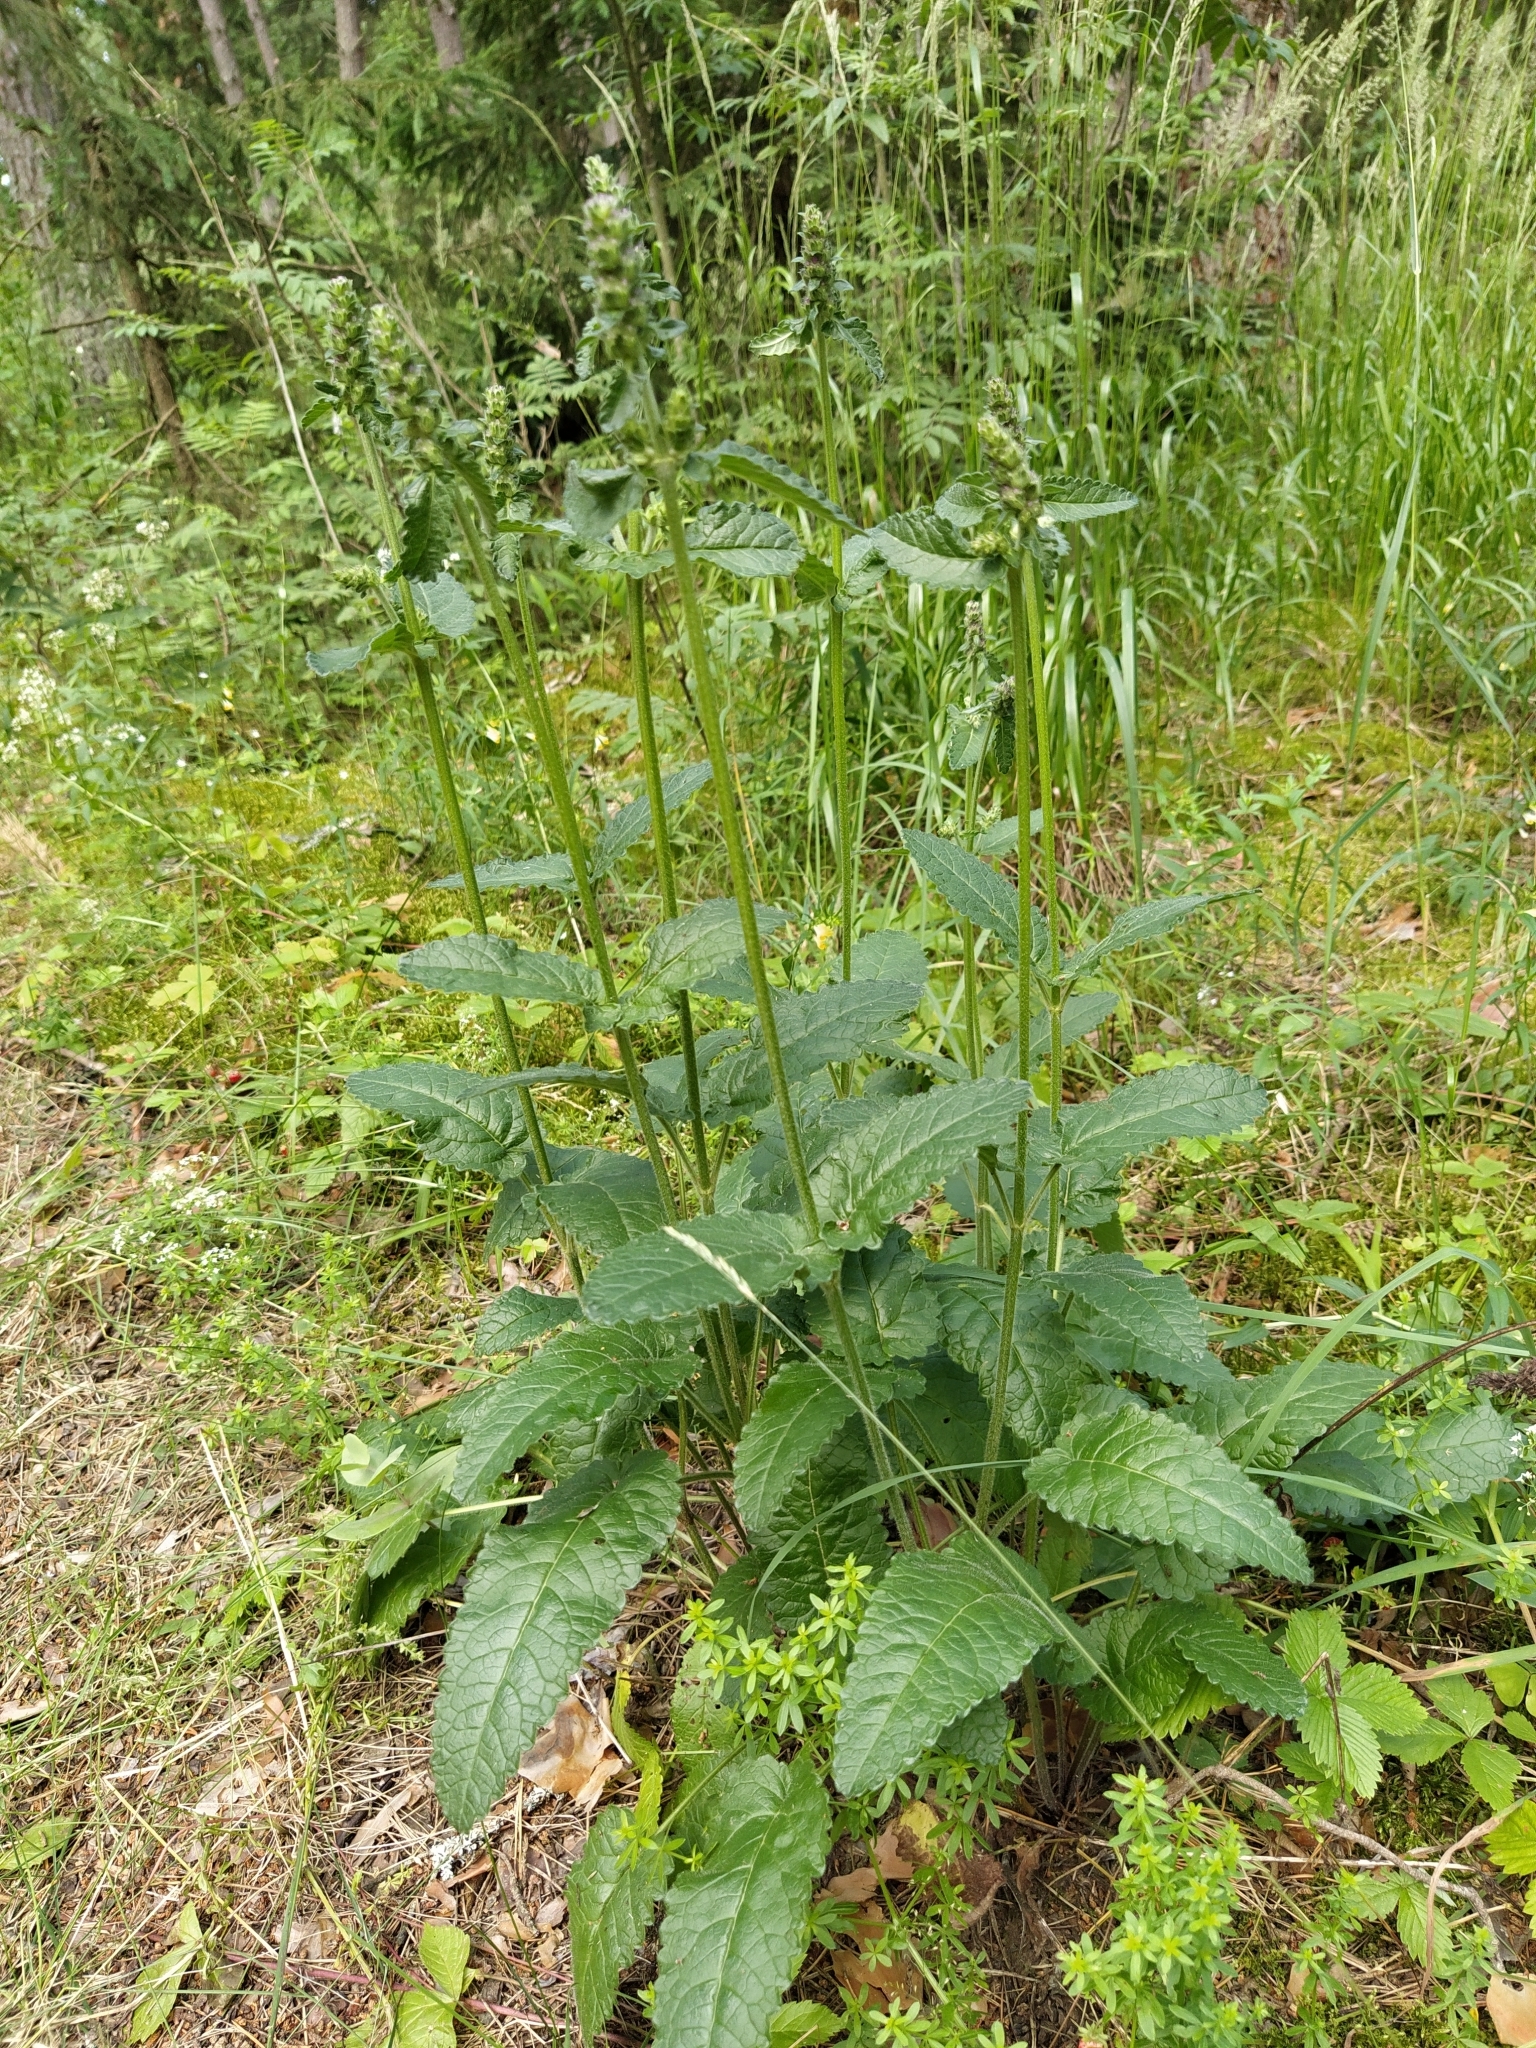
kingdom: Plantae
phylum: Tracheophyta
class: Magnoliopsida
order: Lamiales
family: Lamiaceae
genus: Betonica
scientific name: Betonica officinalis
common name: Bishop's-wort
